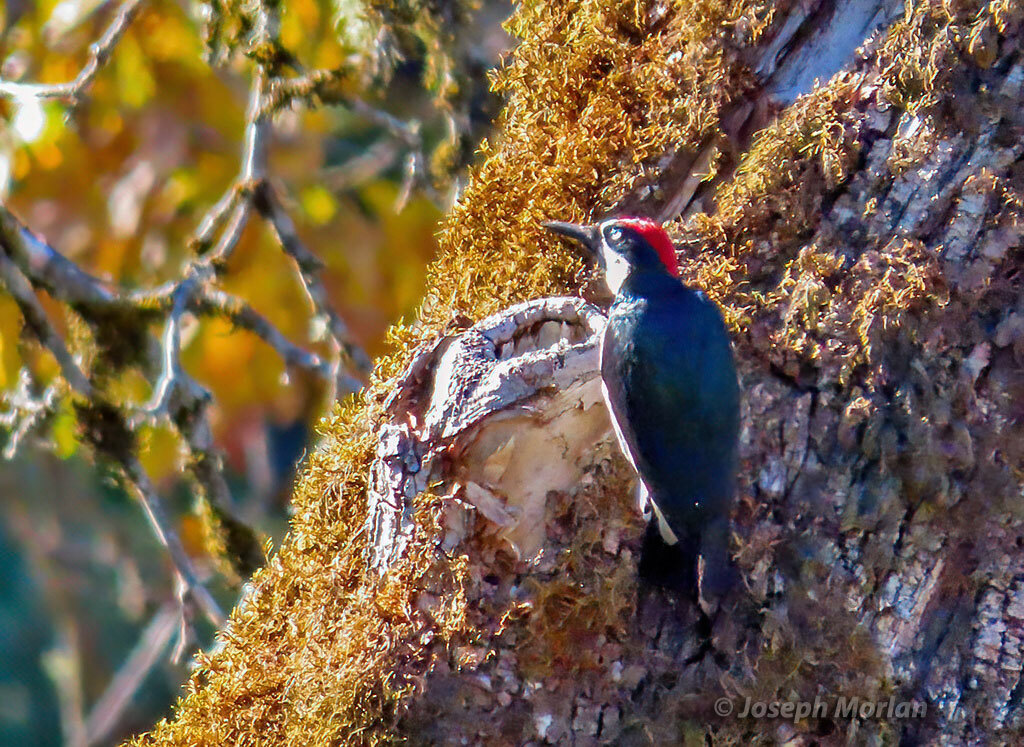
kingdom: Animalia
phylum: Chordata
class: Aves
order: Piciformes
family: Picidae
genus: Melanerpes
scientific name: Melanerpes formicivorus
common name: Acorn woodpecker
